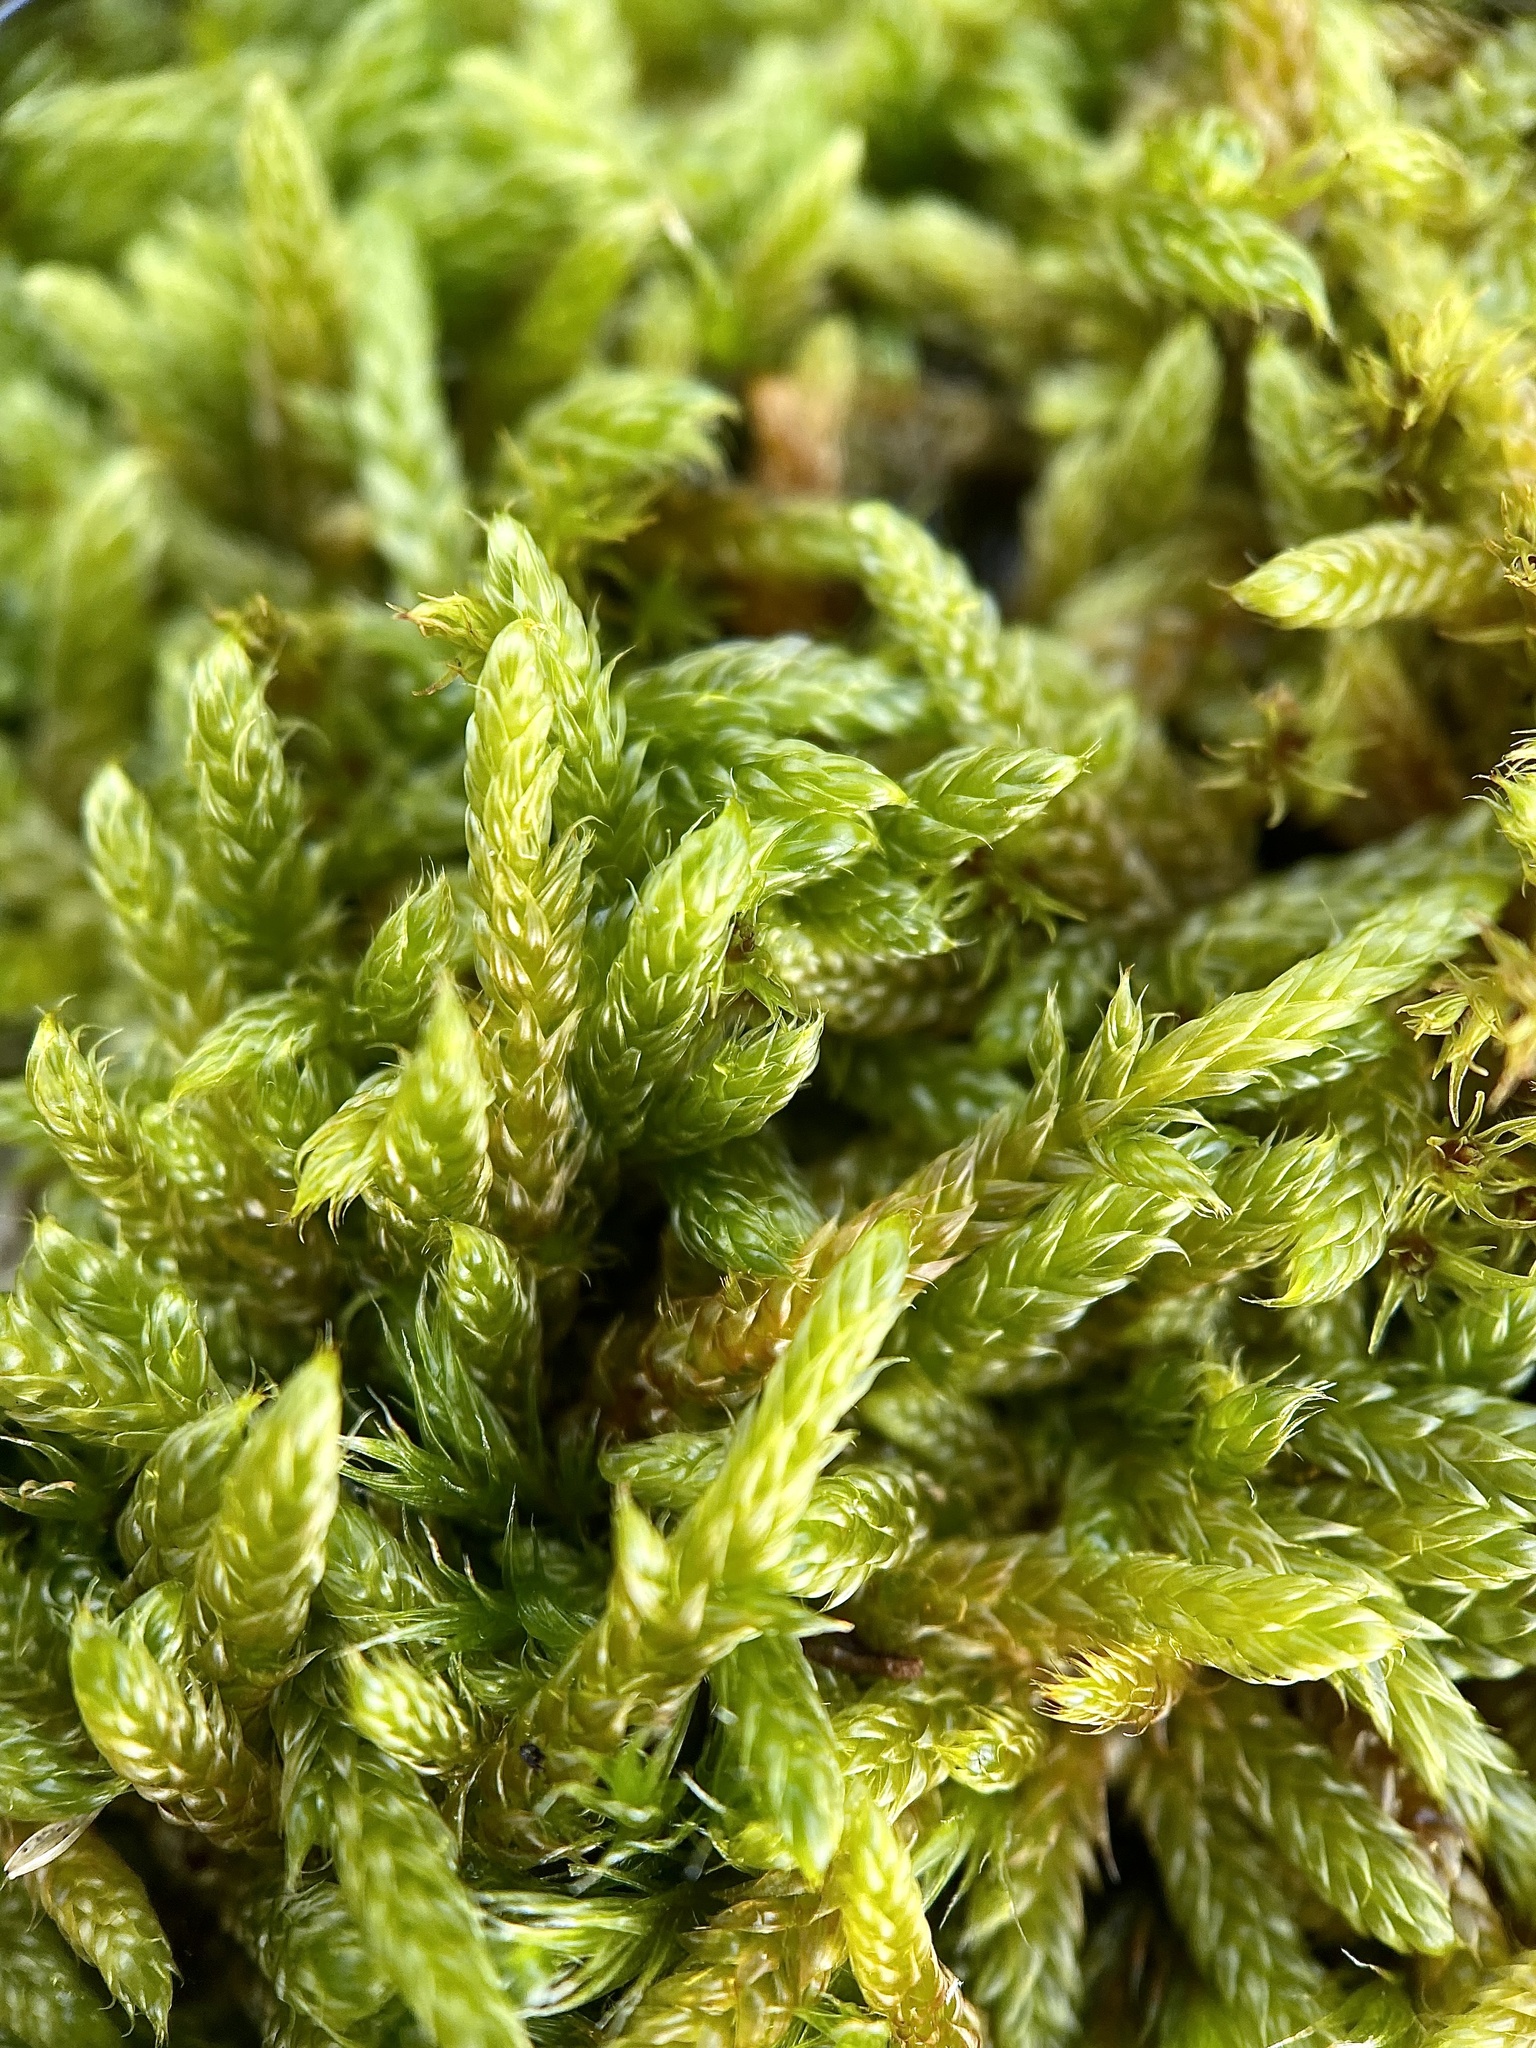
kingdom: Plantae
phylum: Bryophyta
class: Bryopsida
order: Hypnales
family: Hypnaceae
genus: Hypnum
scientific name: Hypnum cupressiforme
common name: Cypress-leaved plait-moss
